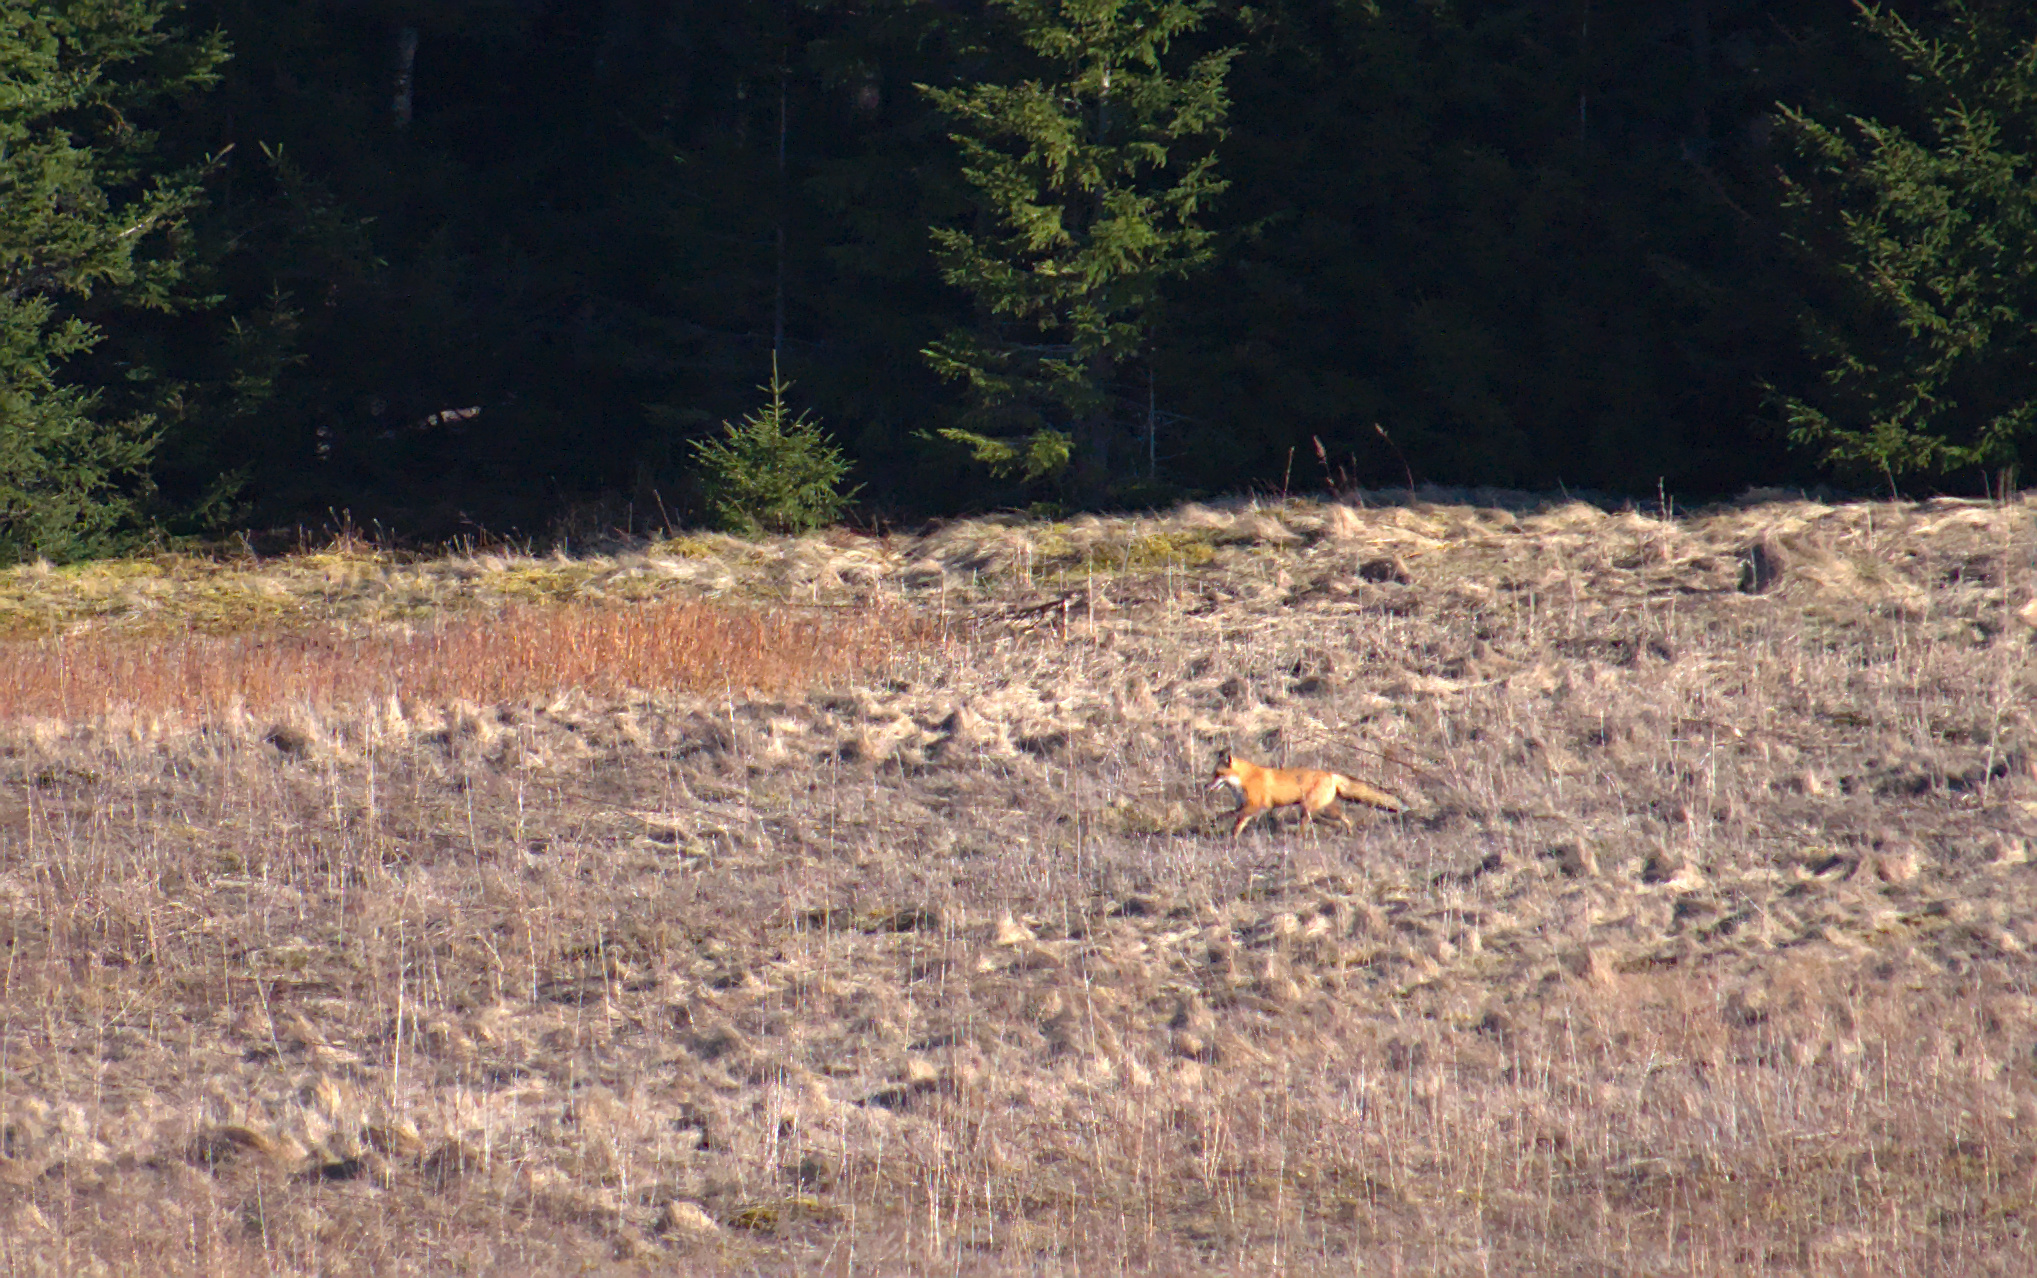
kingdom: Animalia
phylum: Chordata
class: Mammalia
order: Carnivora
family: Canidae
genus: Vulpes
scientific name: Vulpes vulpes
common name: Red fox
